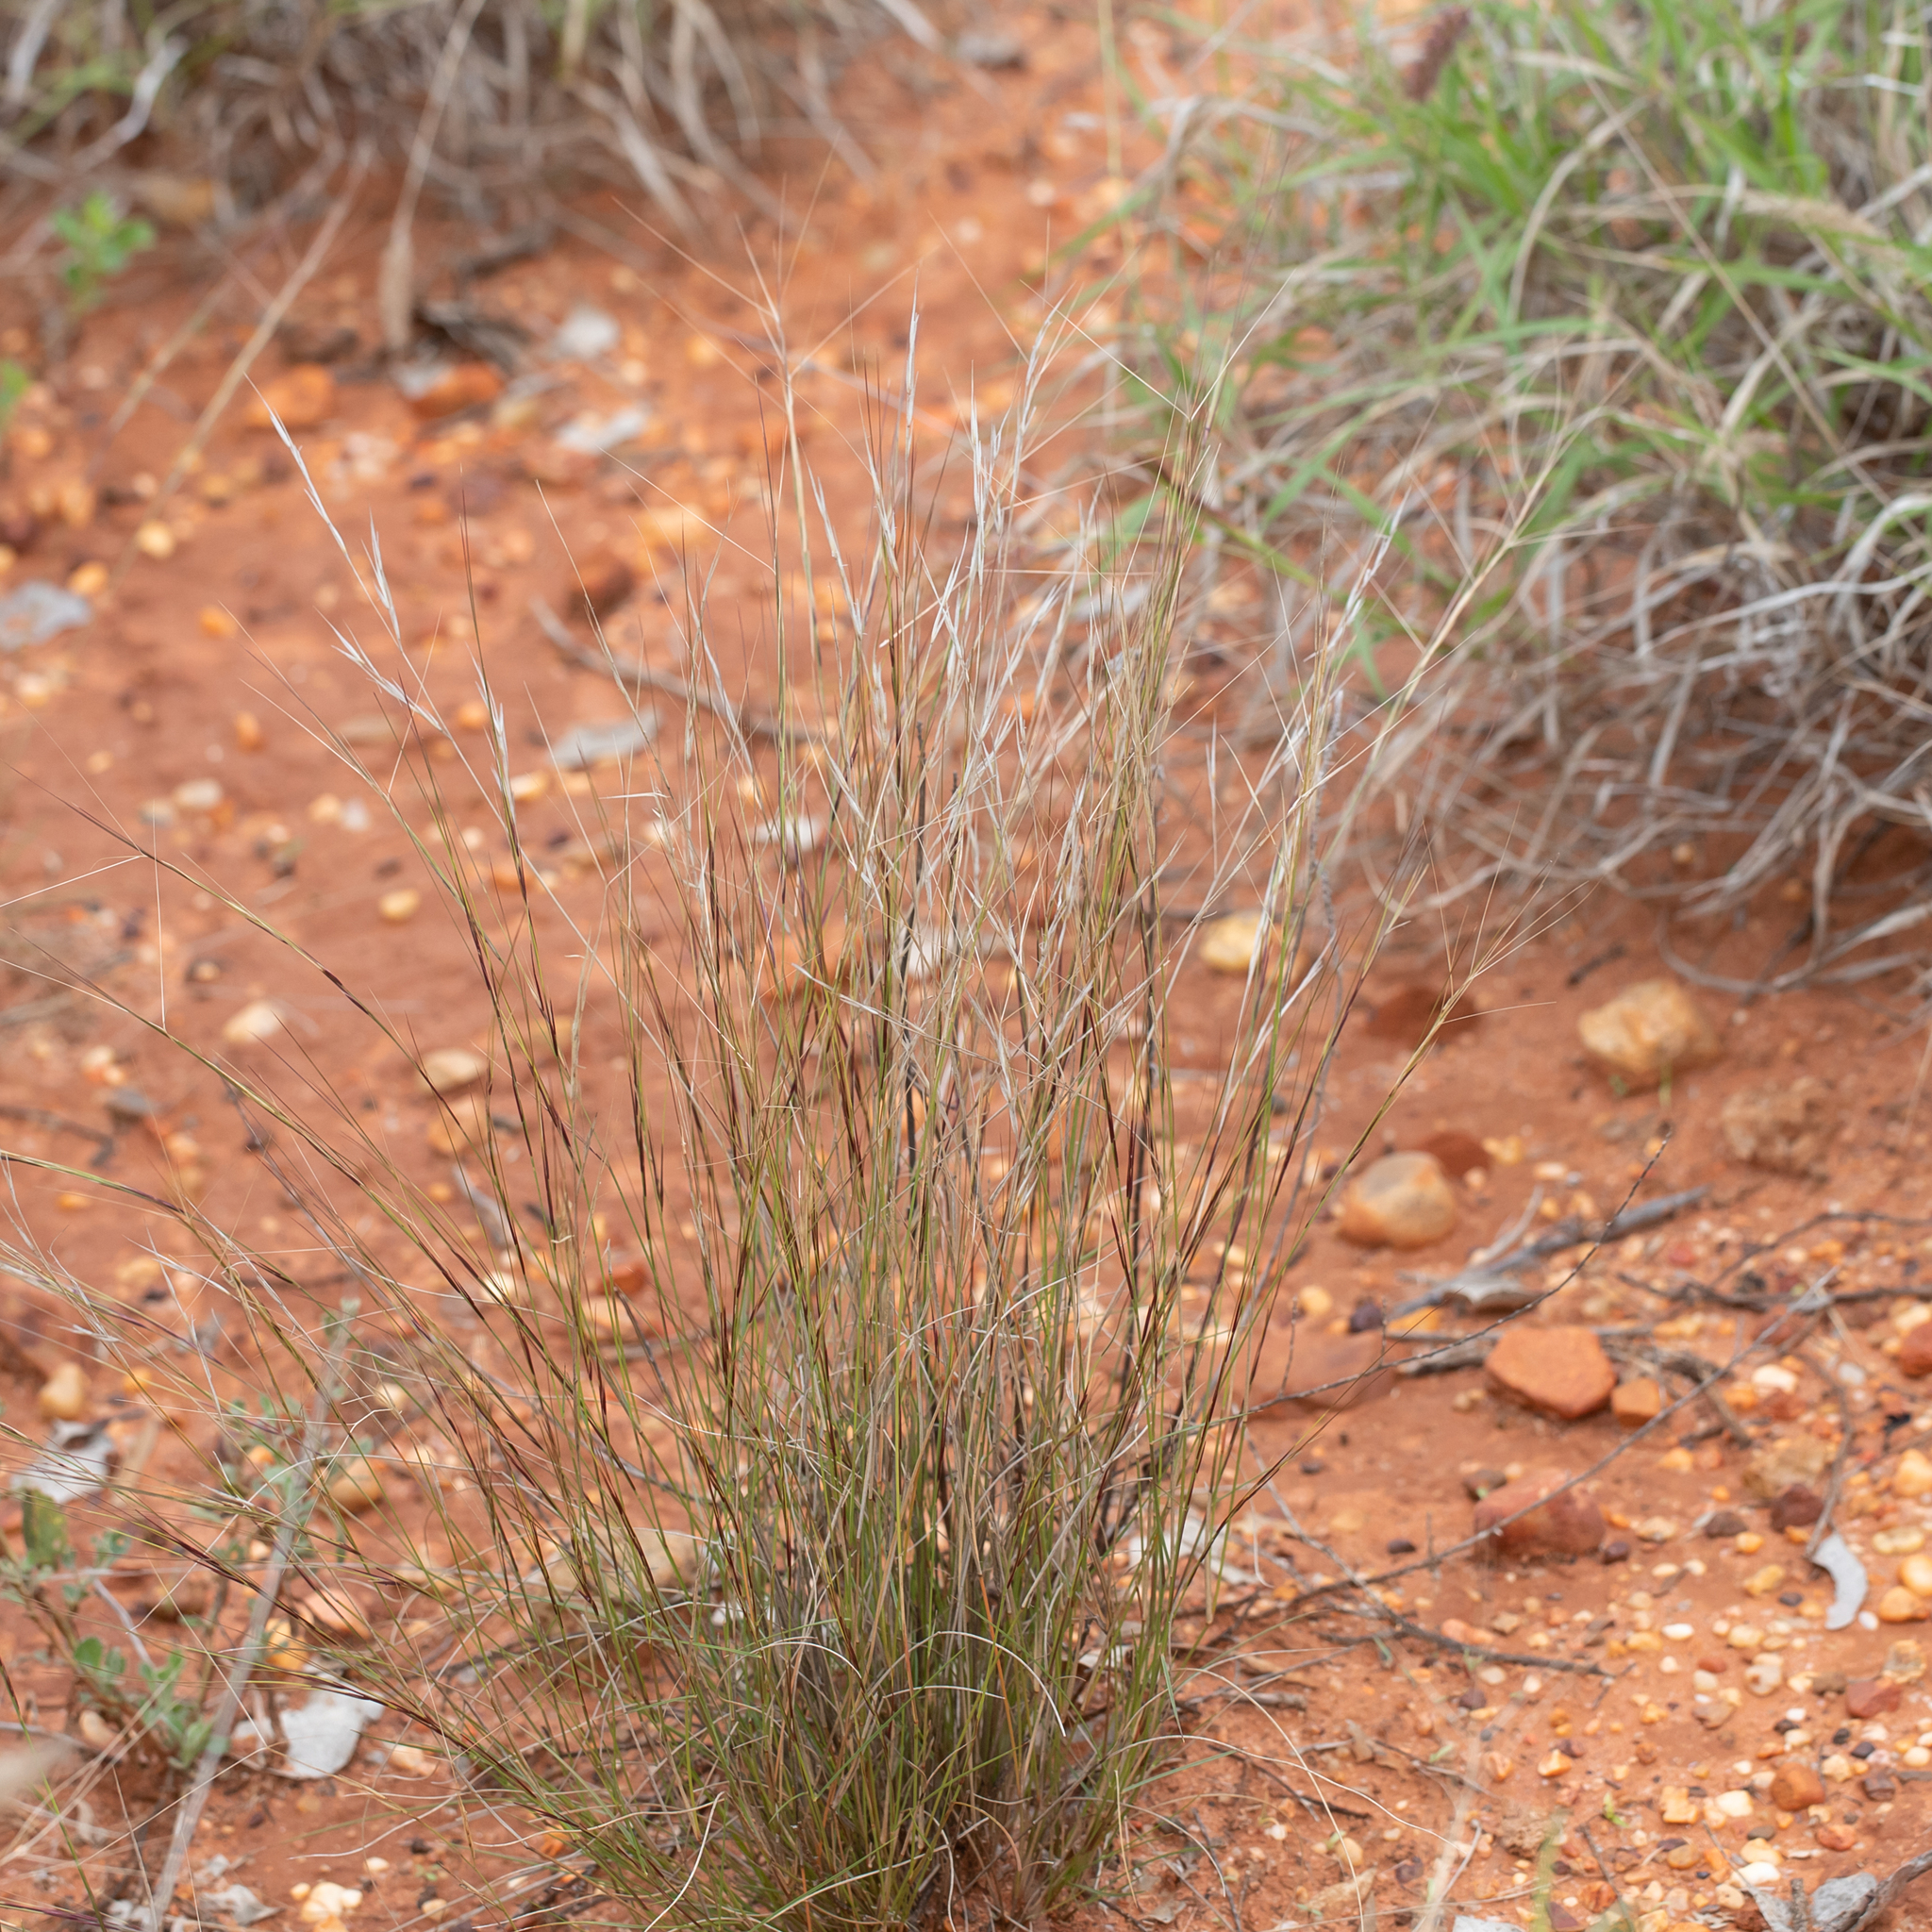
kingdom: Plantae
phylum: Tracheophyta
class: Liliopsida
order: Poales
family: Poaceae
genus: Aristida
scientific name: Aristida holathera
